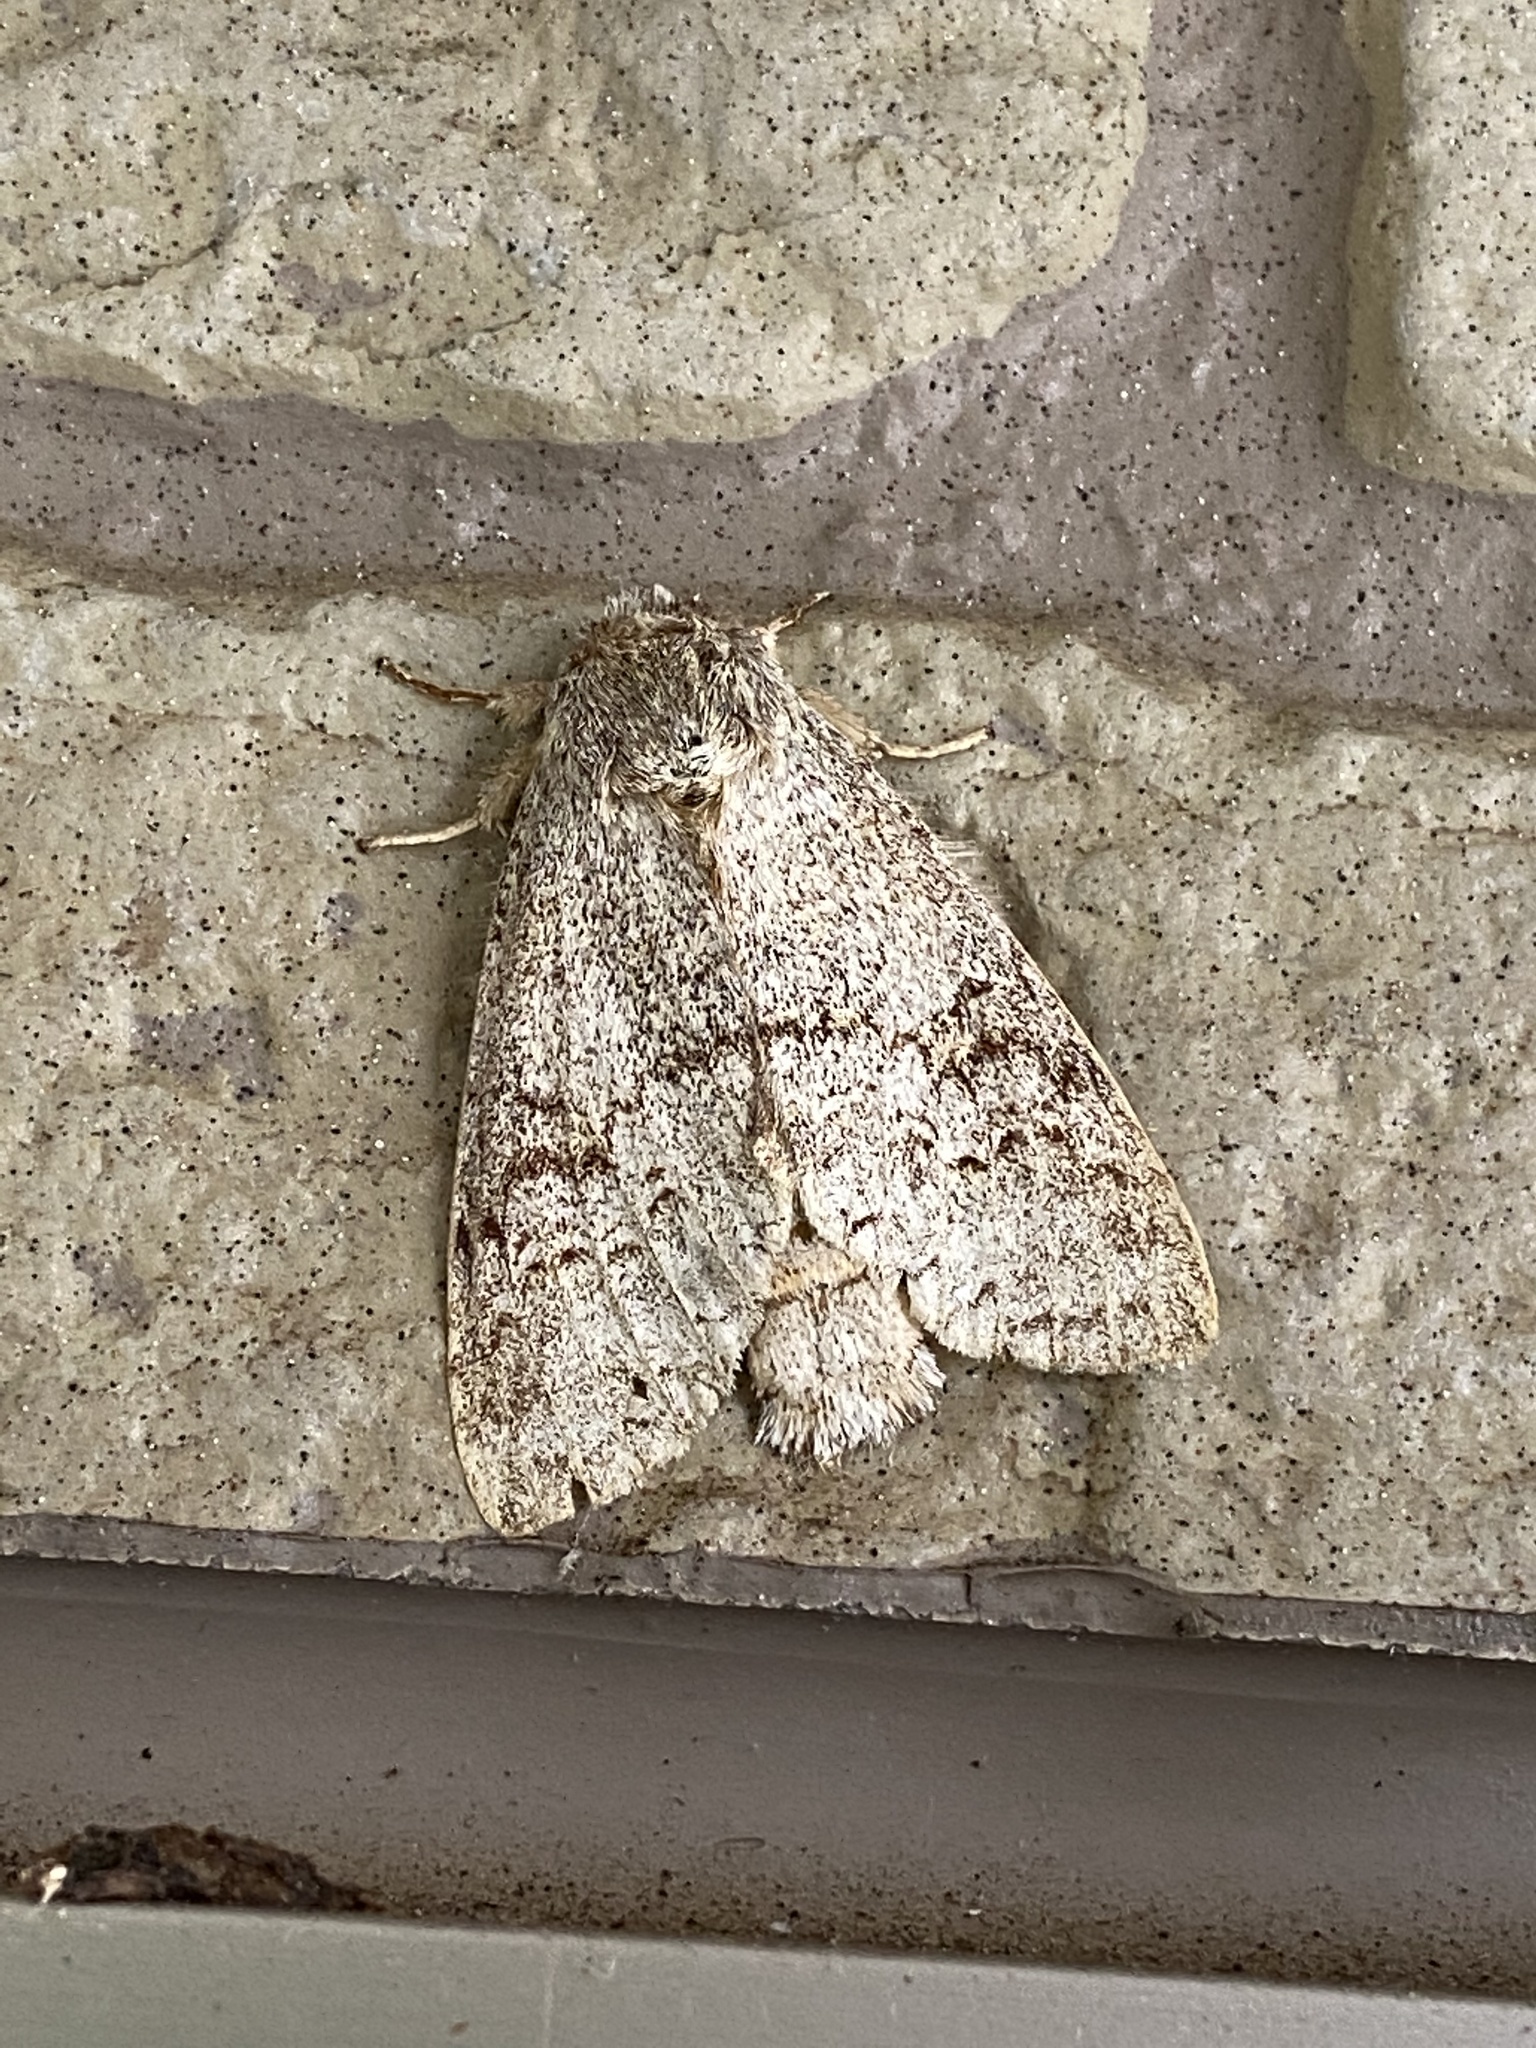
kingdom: Animalia
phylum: Arthropoda
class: Insecta
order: Lepidoptera
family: Notodontidae
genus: Mesophalera
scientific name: Mesophalera sigmata
